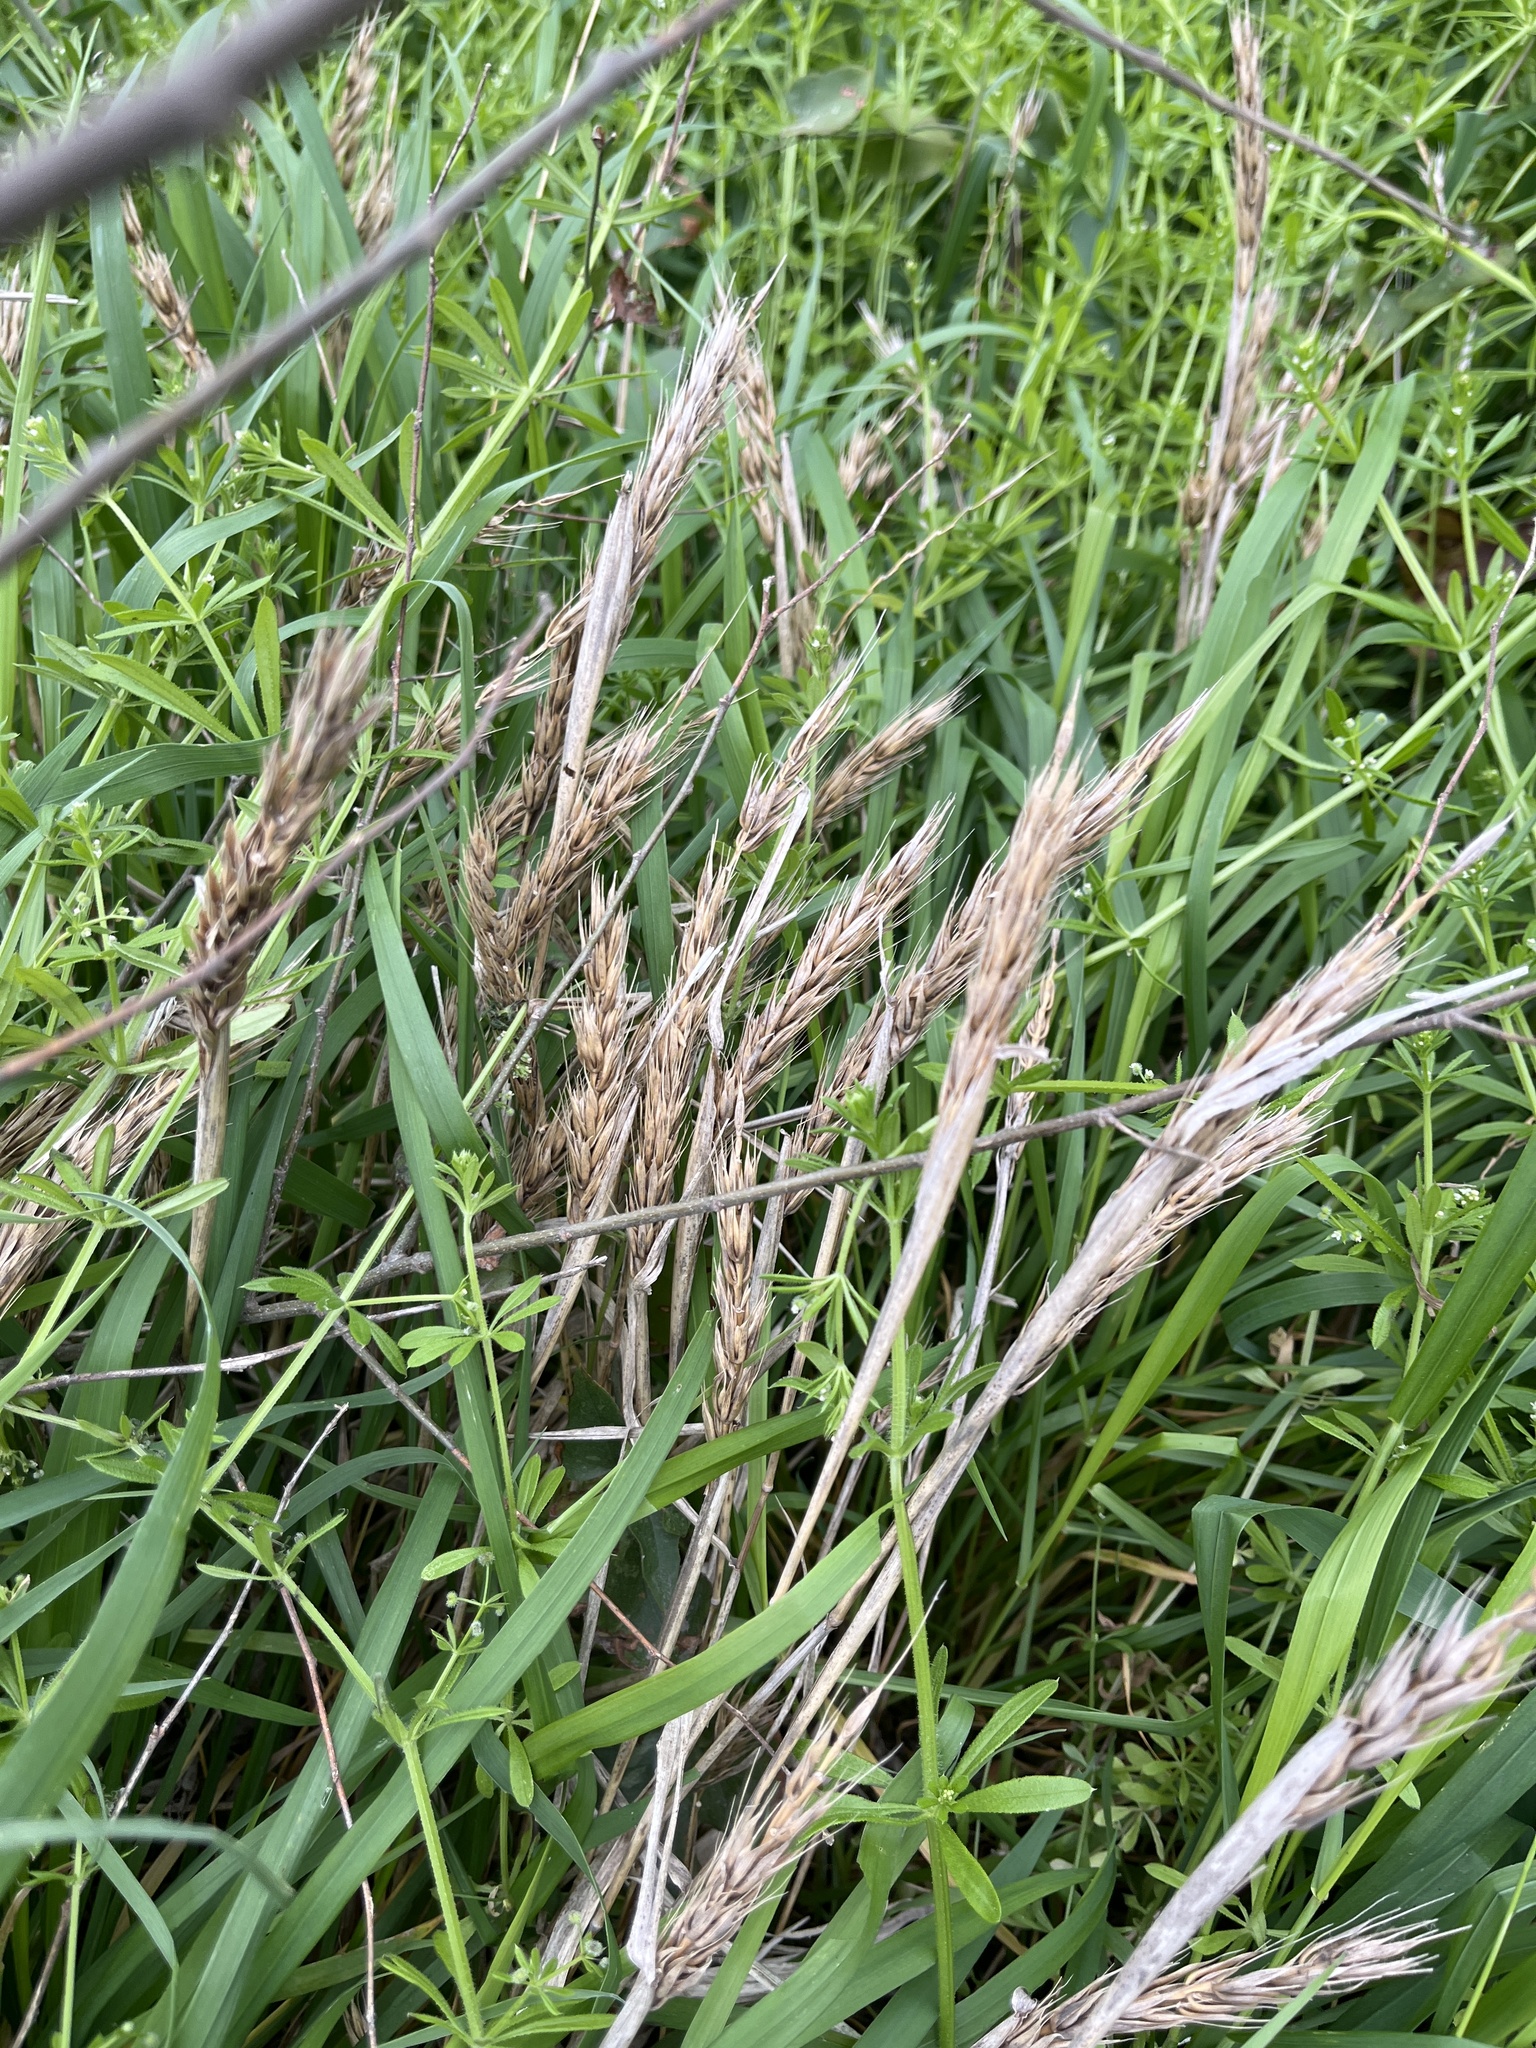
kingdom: Plantae
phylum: Tracheophyta
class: Liliopsida
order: Poales
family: Poaceae
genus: Elymus
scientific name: Elymus virginicus
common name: Common eastern wildrye
